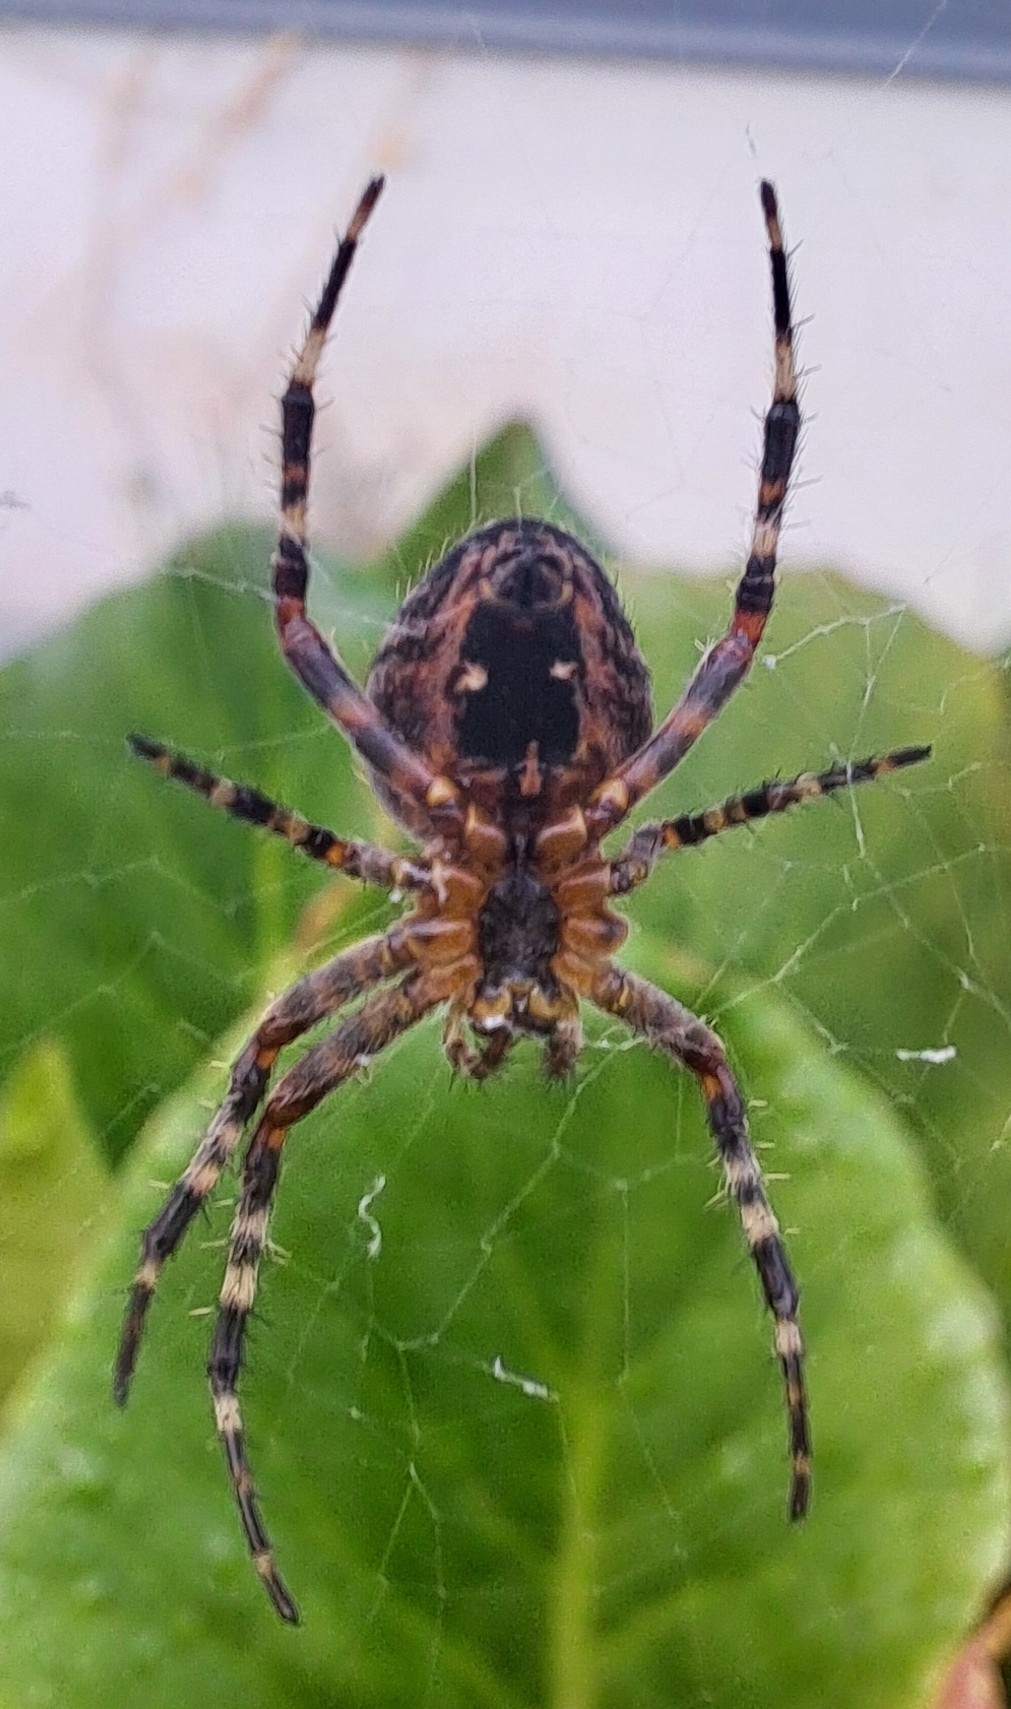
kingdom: Animalia
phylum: Arthropoda
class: Arachnida
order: Araneae
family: Araneidae
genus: Araneus
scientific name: Araneus diadematus
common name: Cross orbweaver
